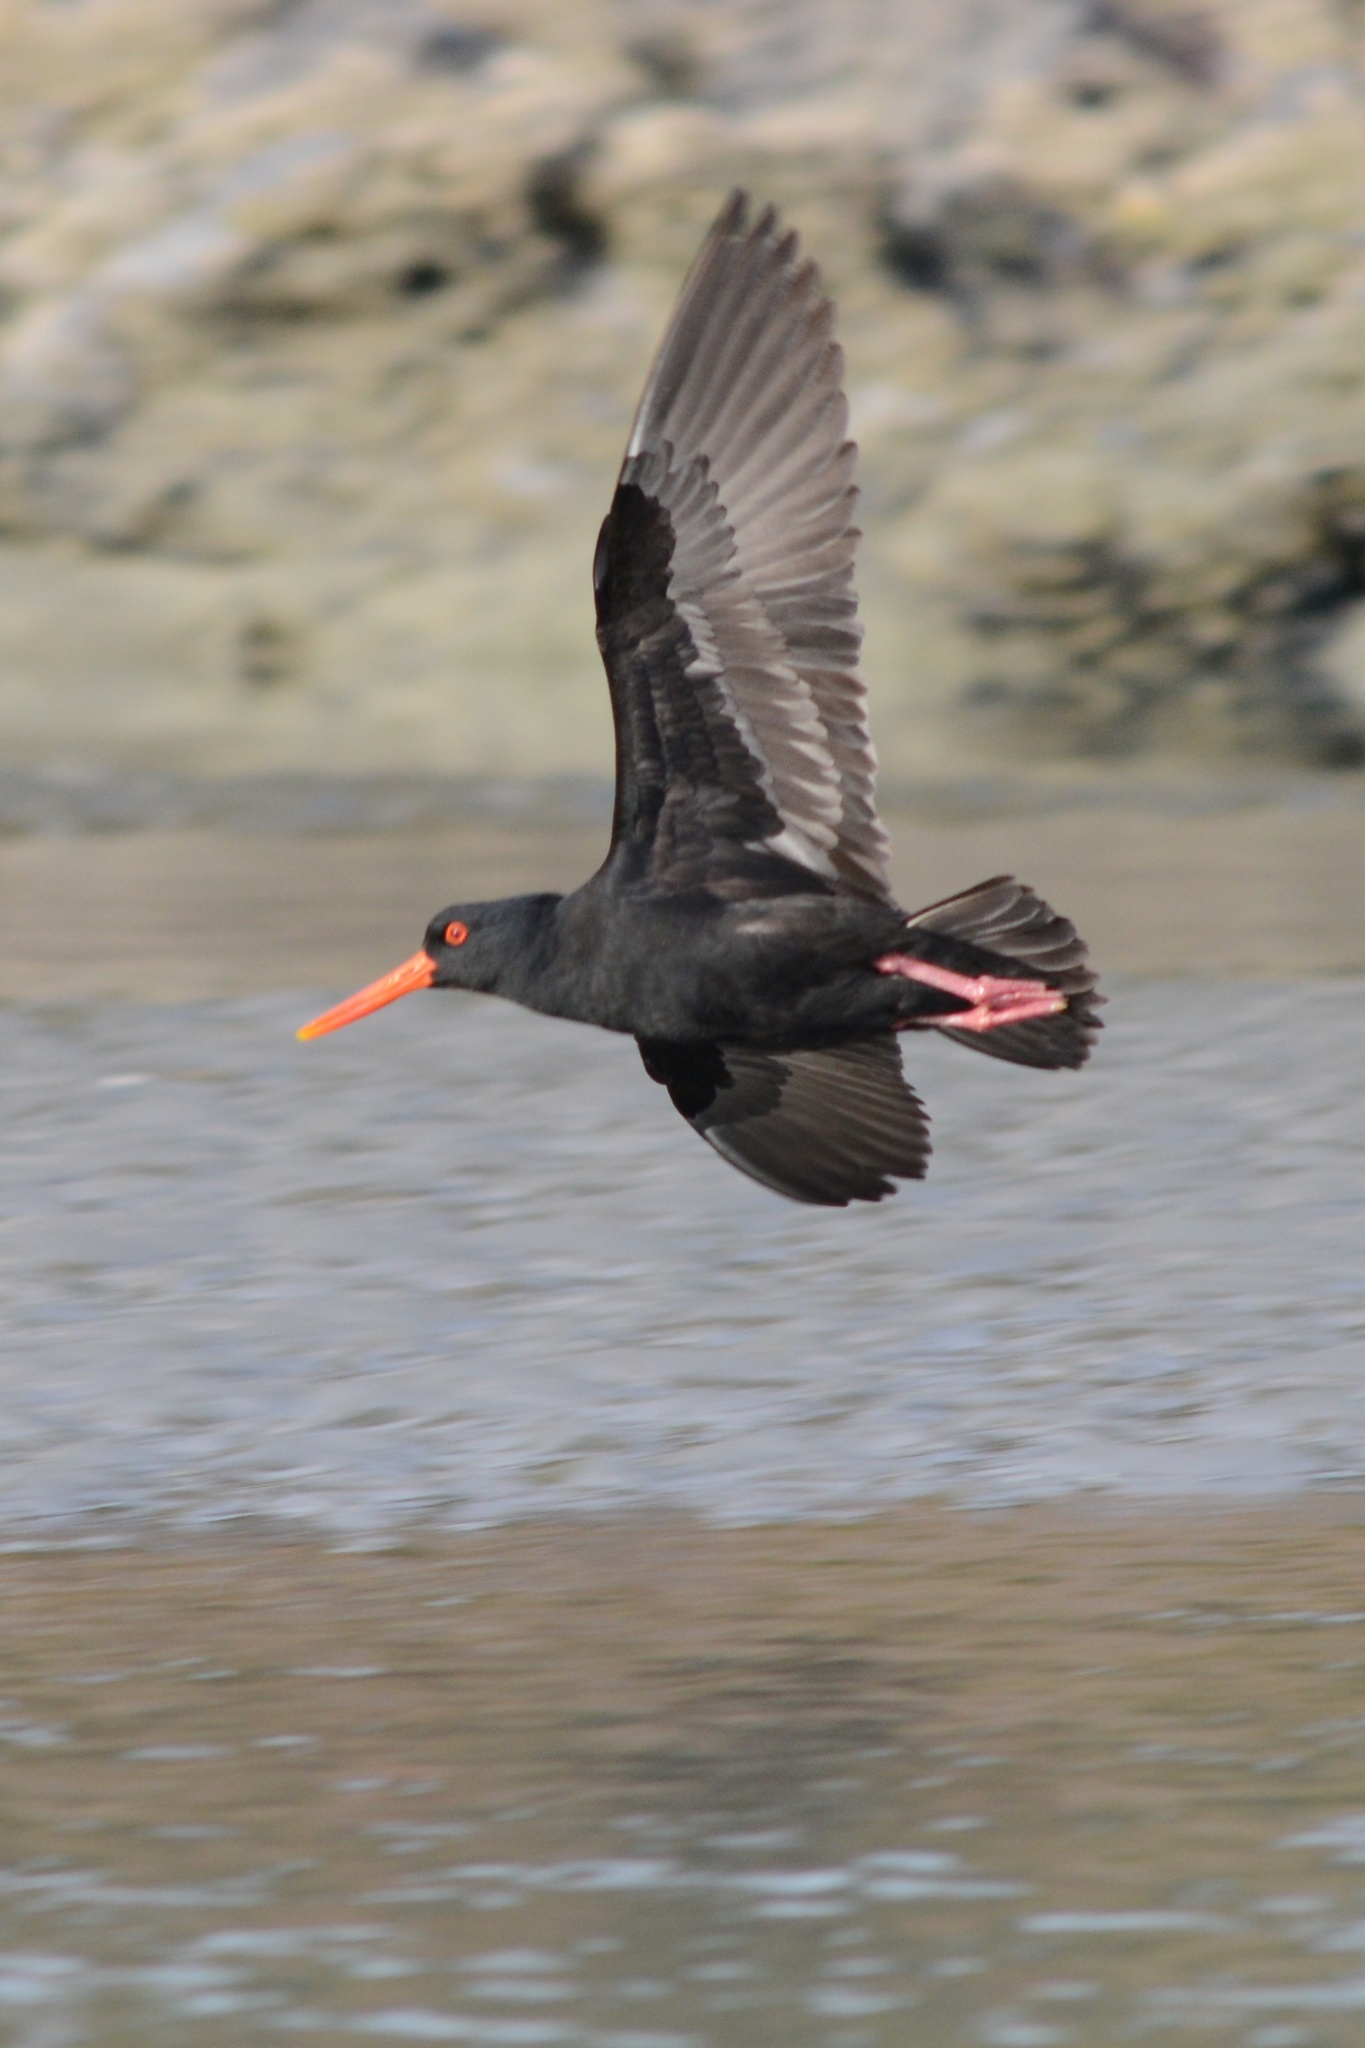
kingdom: Animalia
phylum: Chordata
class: Aves
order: Charadriiformes
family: Haematopodidae
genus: Haematopus
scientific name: Haematopus unicolor
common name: Variable oystercatcher
